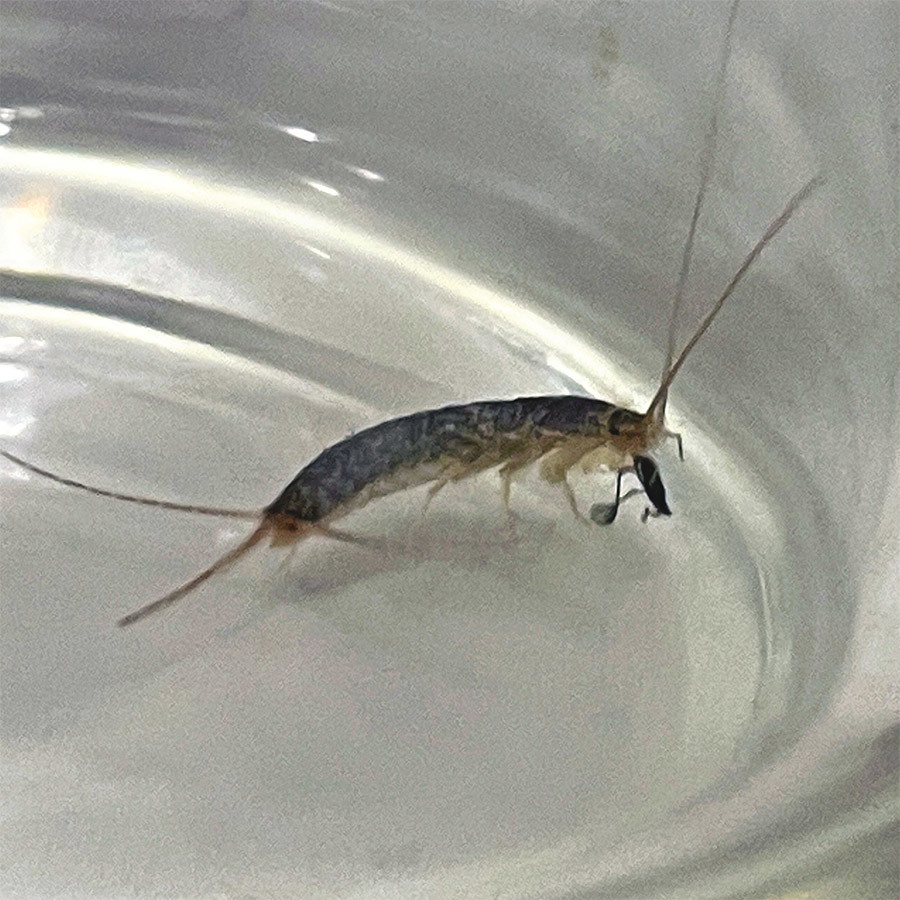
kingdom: Animalia
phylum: Arthropoda
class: Insecta
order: Zygentoma
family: Lepismatidae
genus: Ctenolepisma
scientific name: Ctenolepisma longicaudatum
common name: Silverfish
